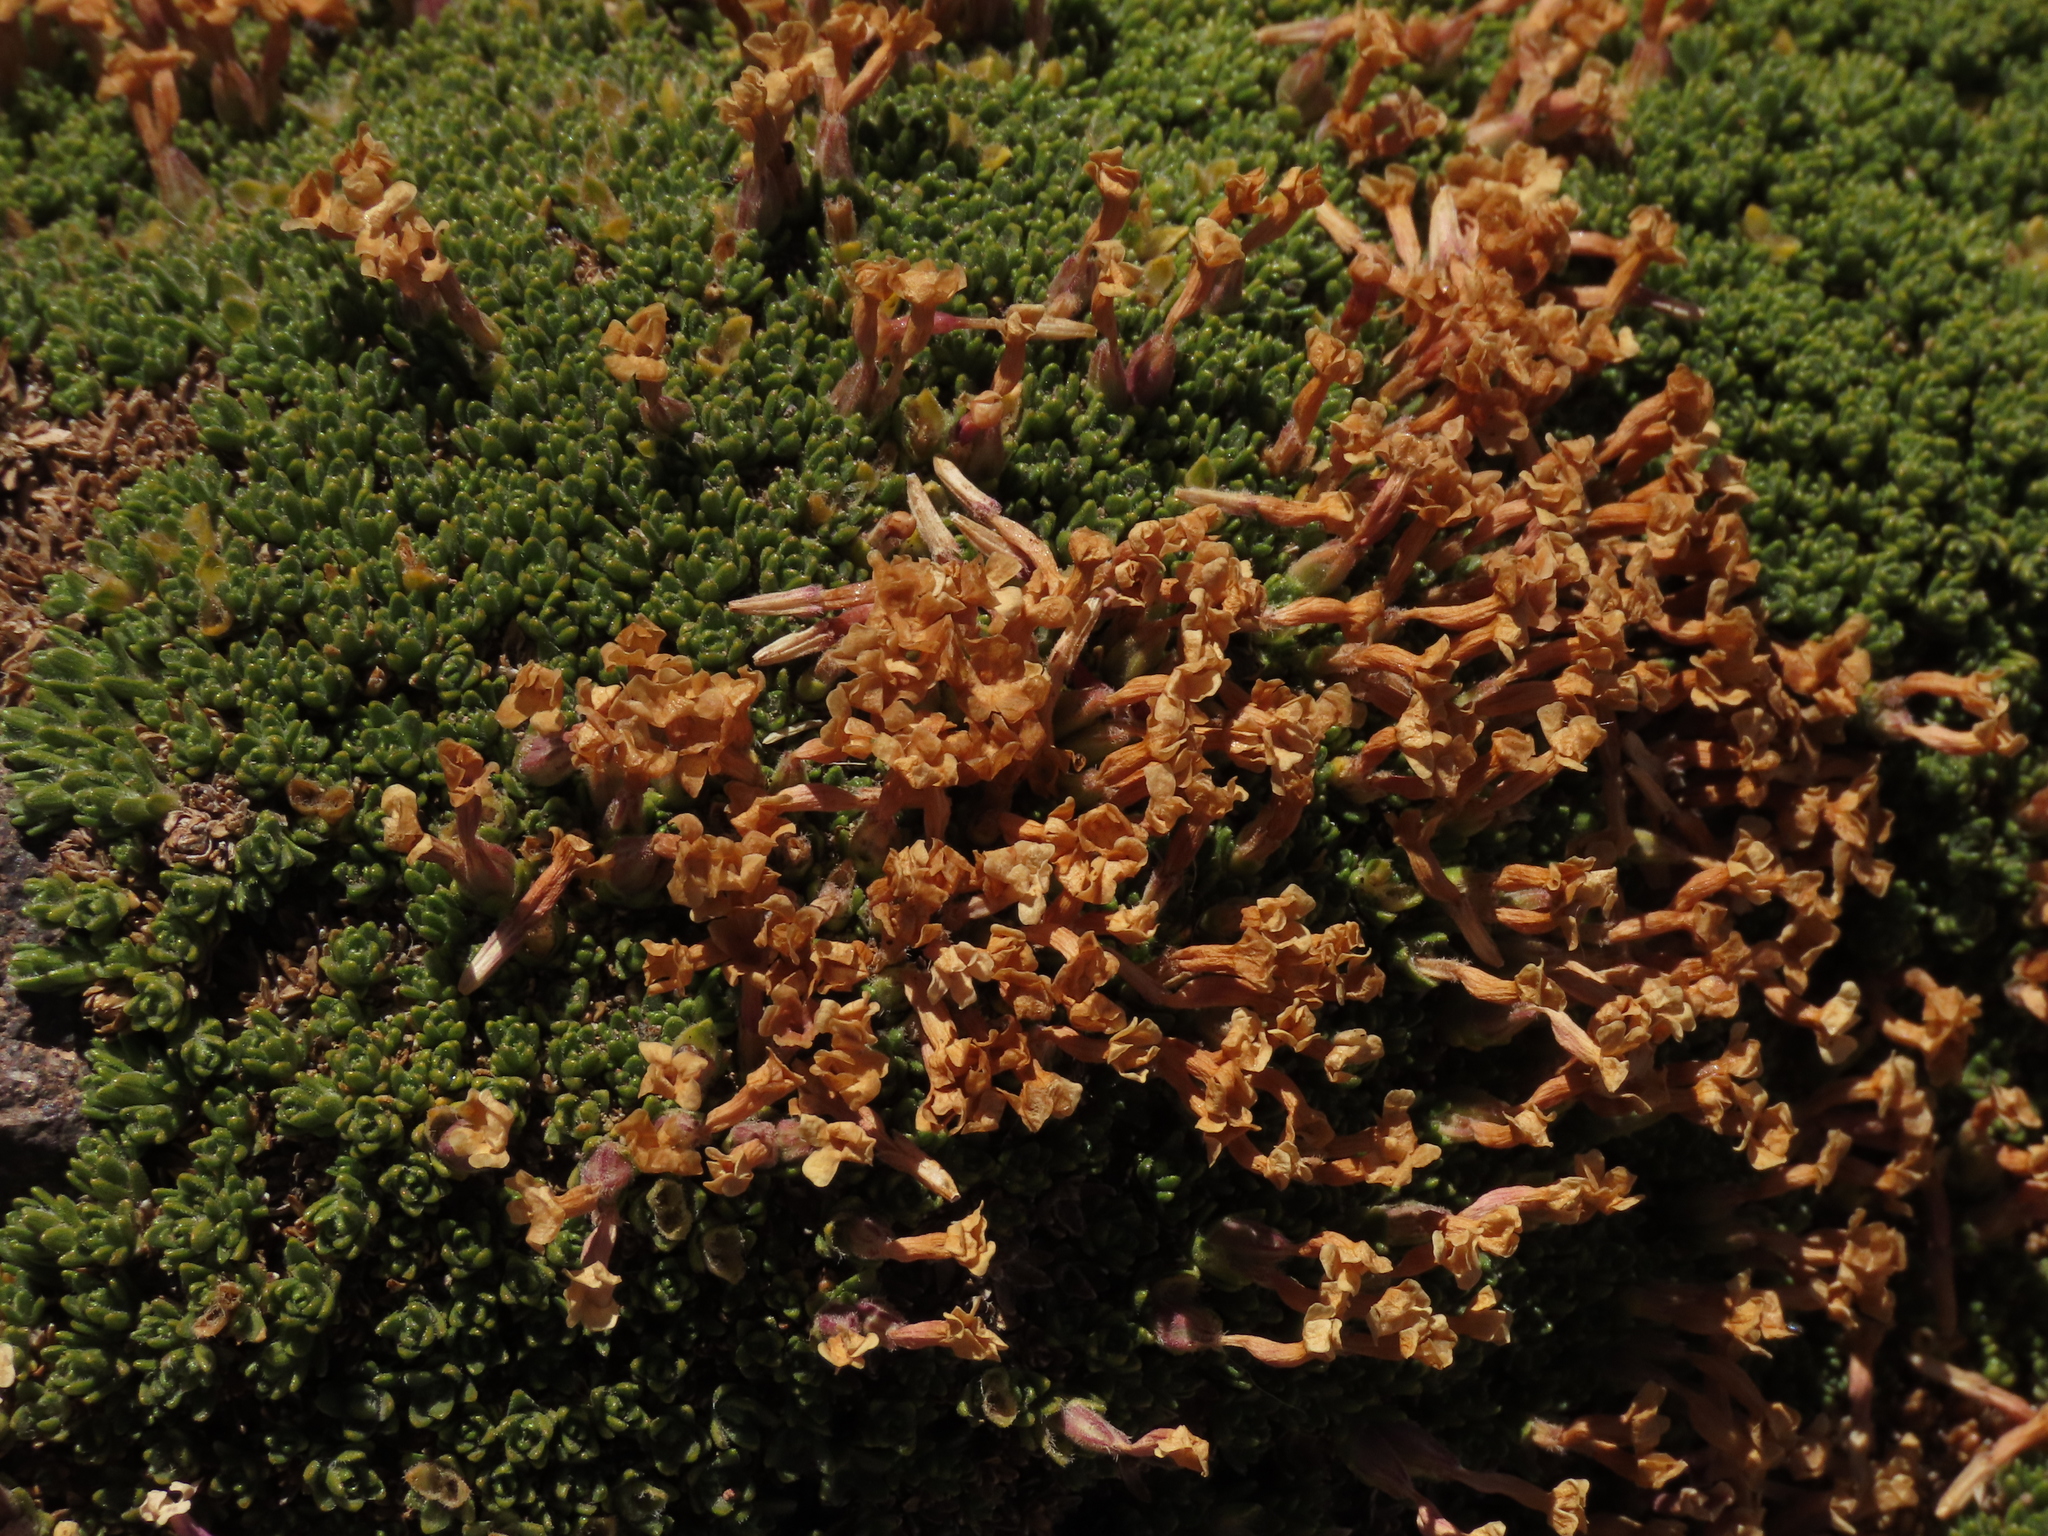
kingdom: Plantae
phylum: Tracheophyta
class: Magnoliopsida
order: Lamiales
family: Verbenaceae
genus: Junellia
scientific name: Junellia uniflora
